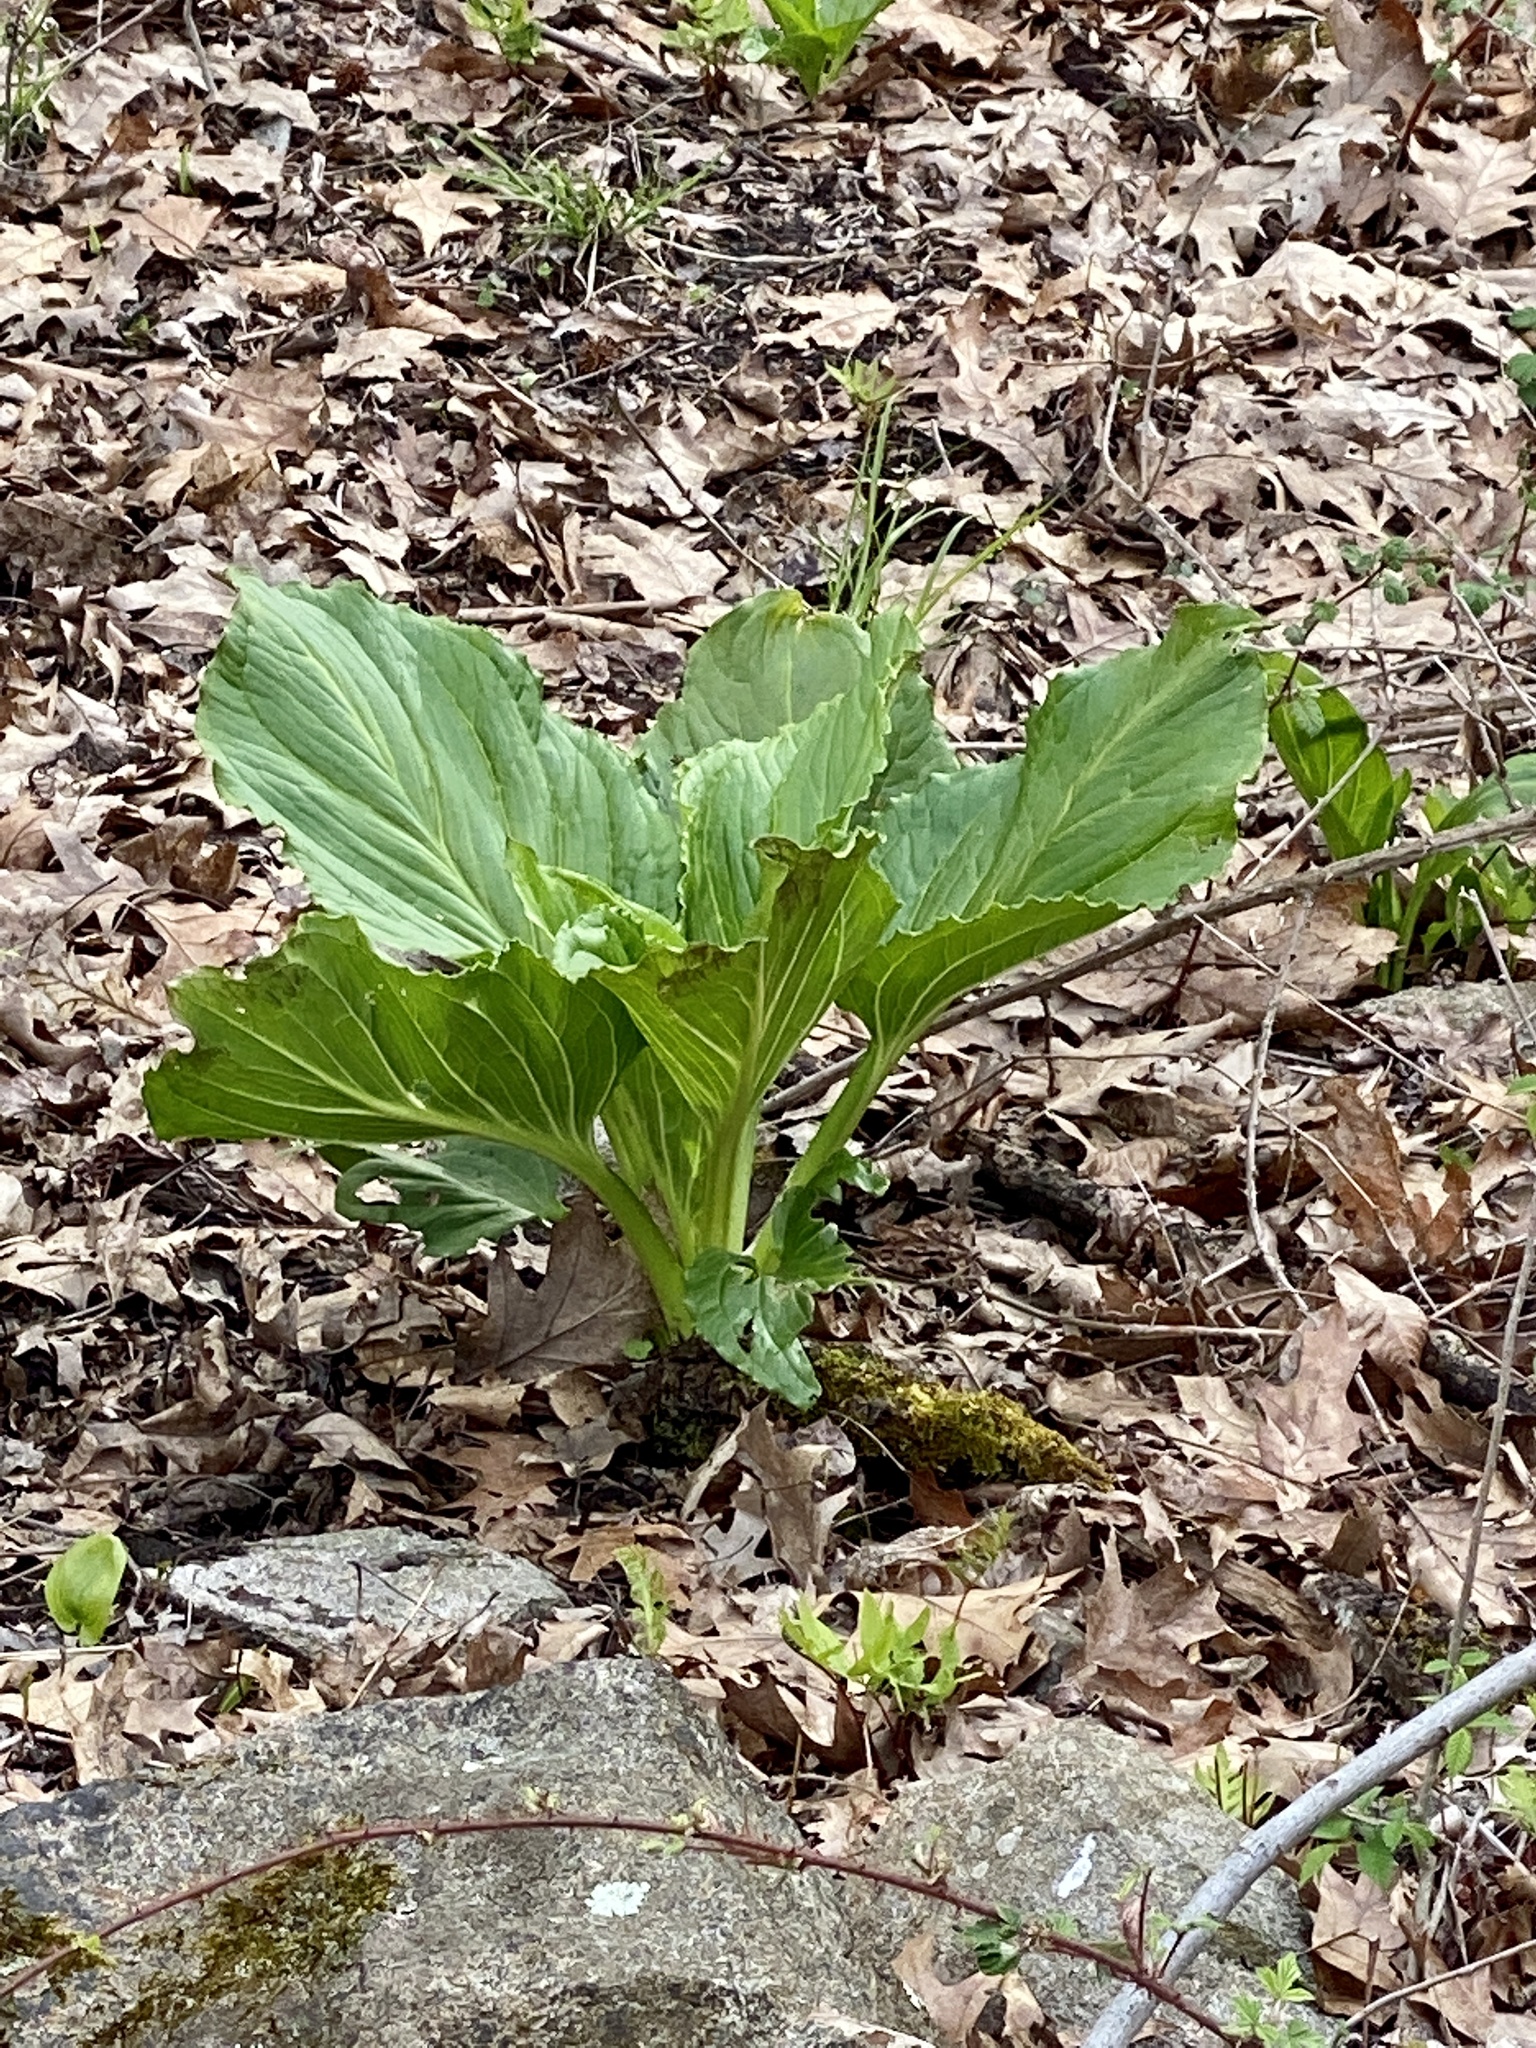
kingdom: Plantae
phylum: Tracheophyta
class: Liliopsida
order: Alismatales
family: Araceae
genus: Symplocarpus
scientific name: Symplocarpus foetidus
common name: Eastern skunk cabbage
